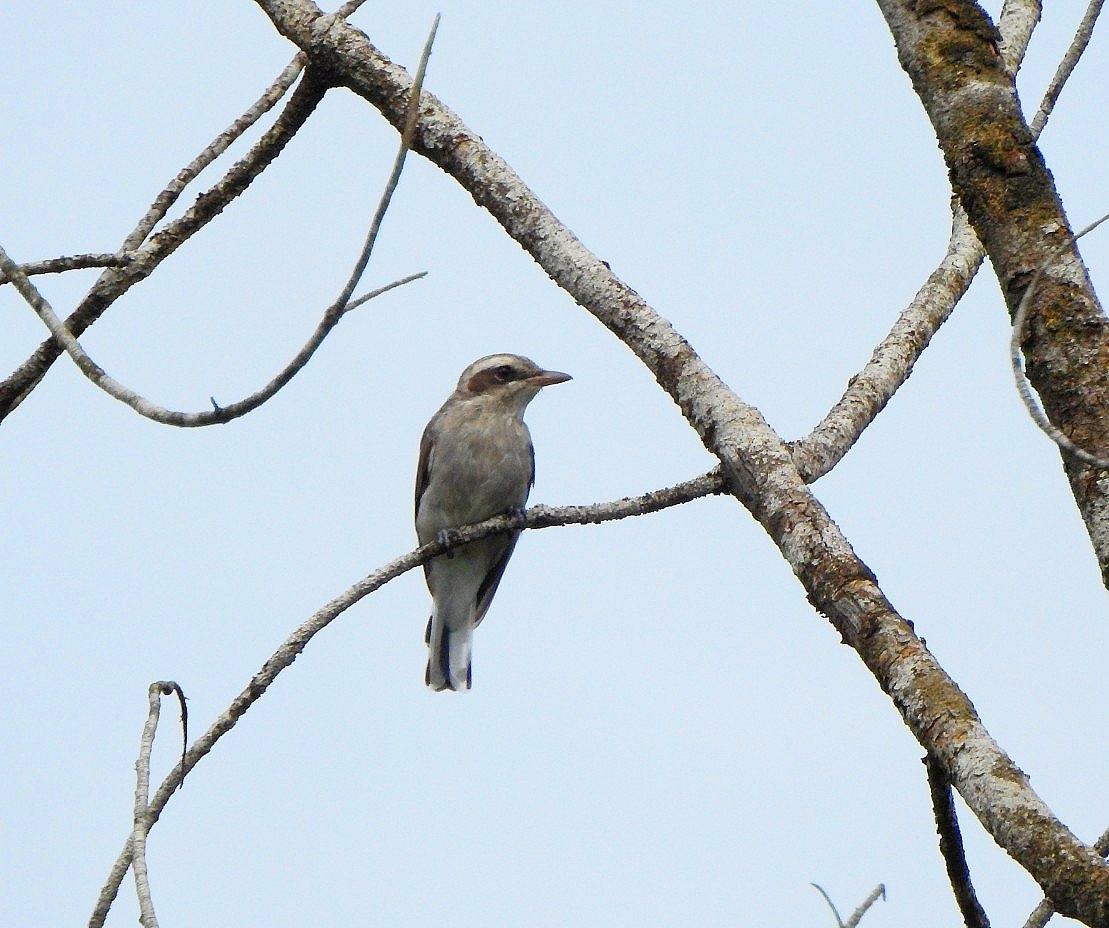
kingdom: Animalia
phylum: Chordata
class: Aves
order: Passeriformes
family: Tephrodornithidae
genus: Tephrodornis
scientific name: Tephrodornis pondicerianus
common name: Common woodshrike
